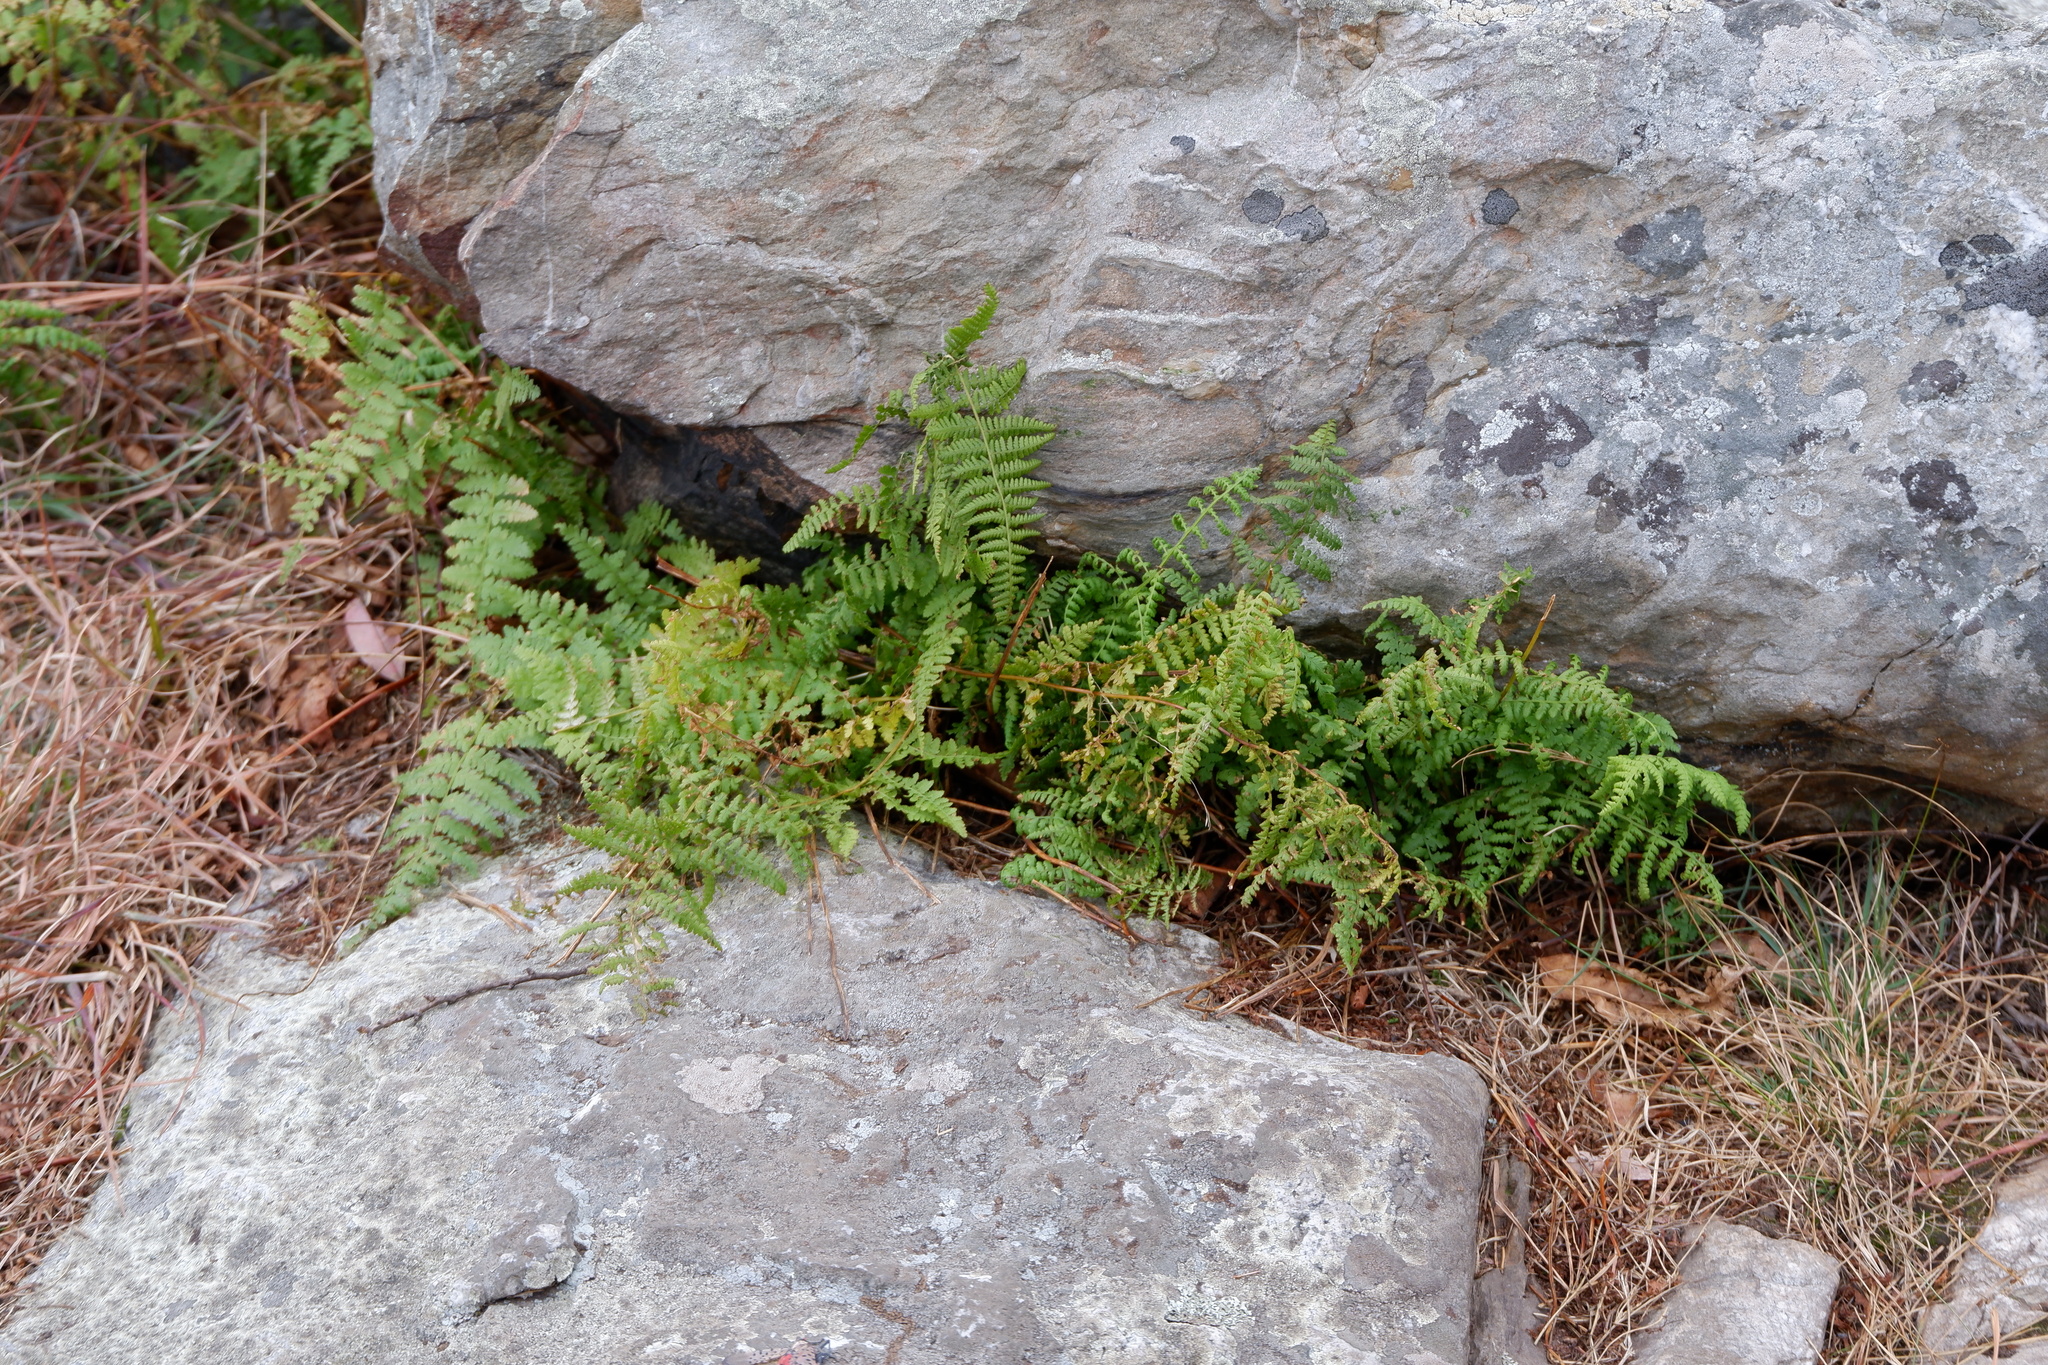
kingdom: Plantae
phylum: Tracheophyta
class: Polypodiopsida
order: Polypodiales
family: Dennstaedtiaceae
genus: Sitobolium
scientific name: Sitobolium punctilobum
